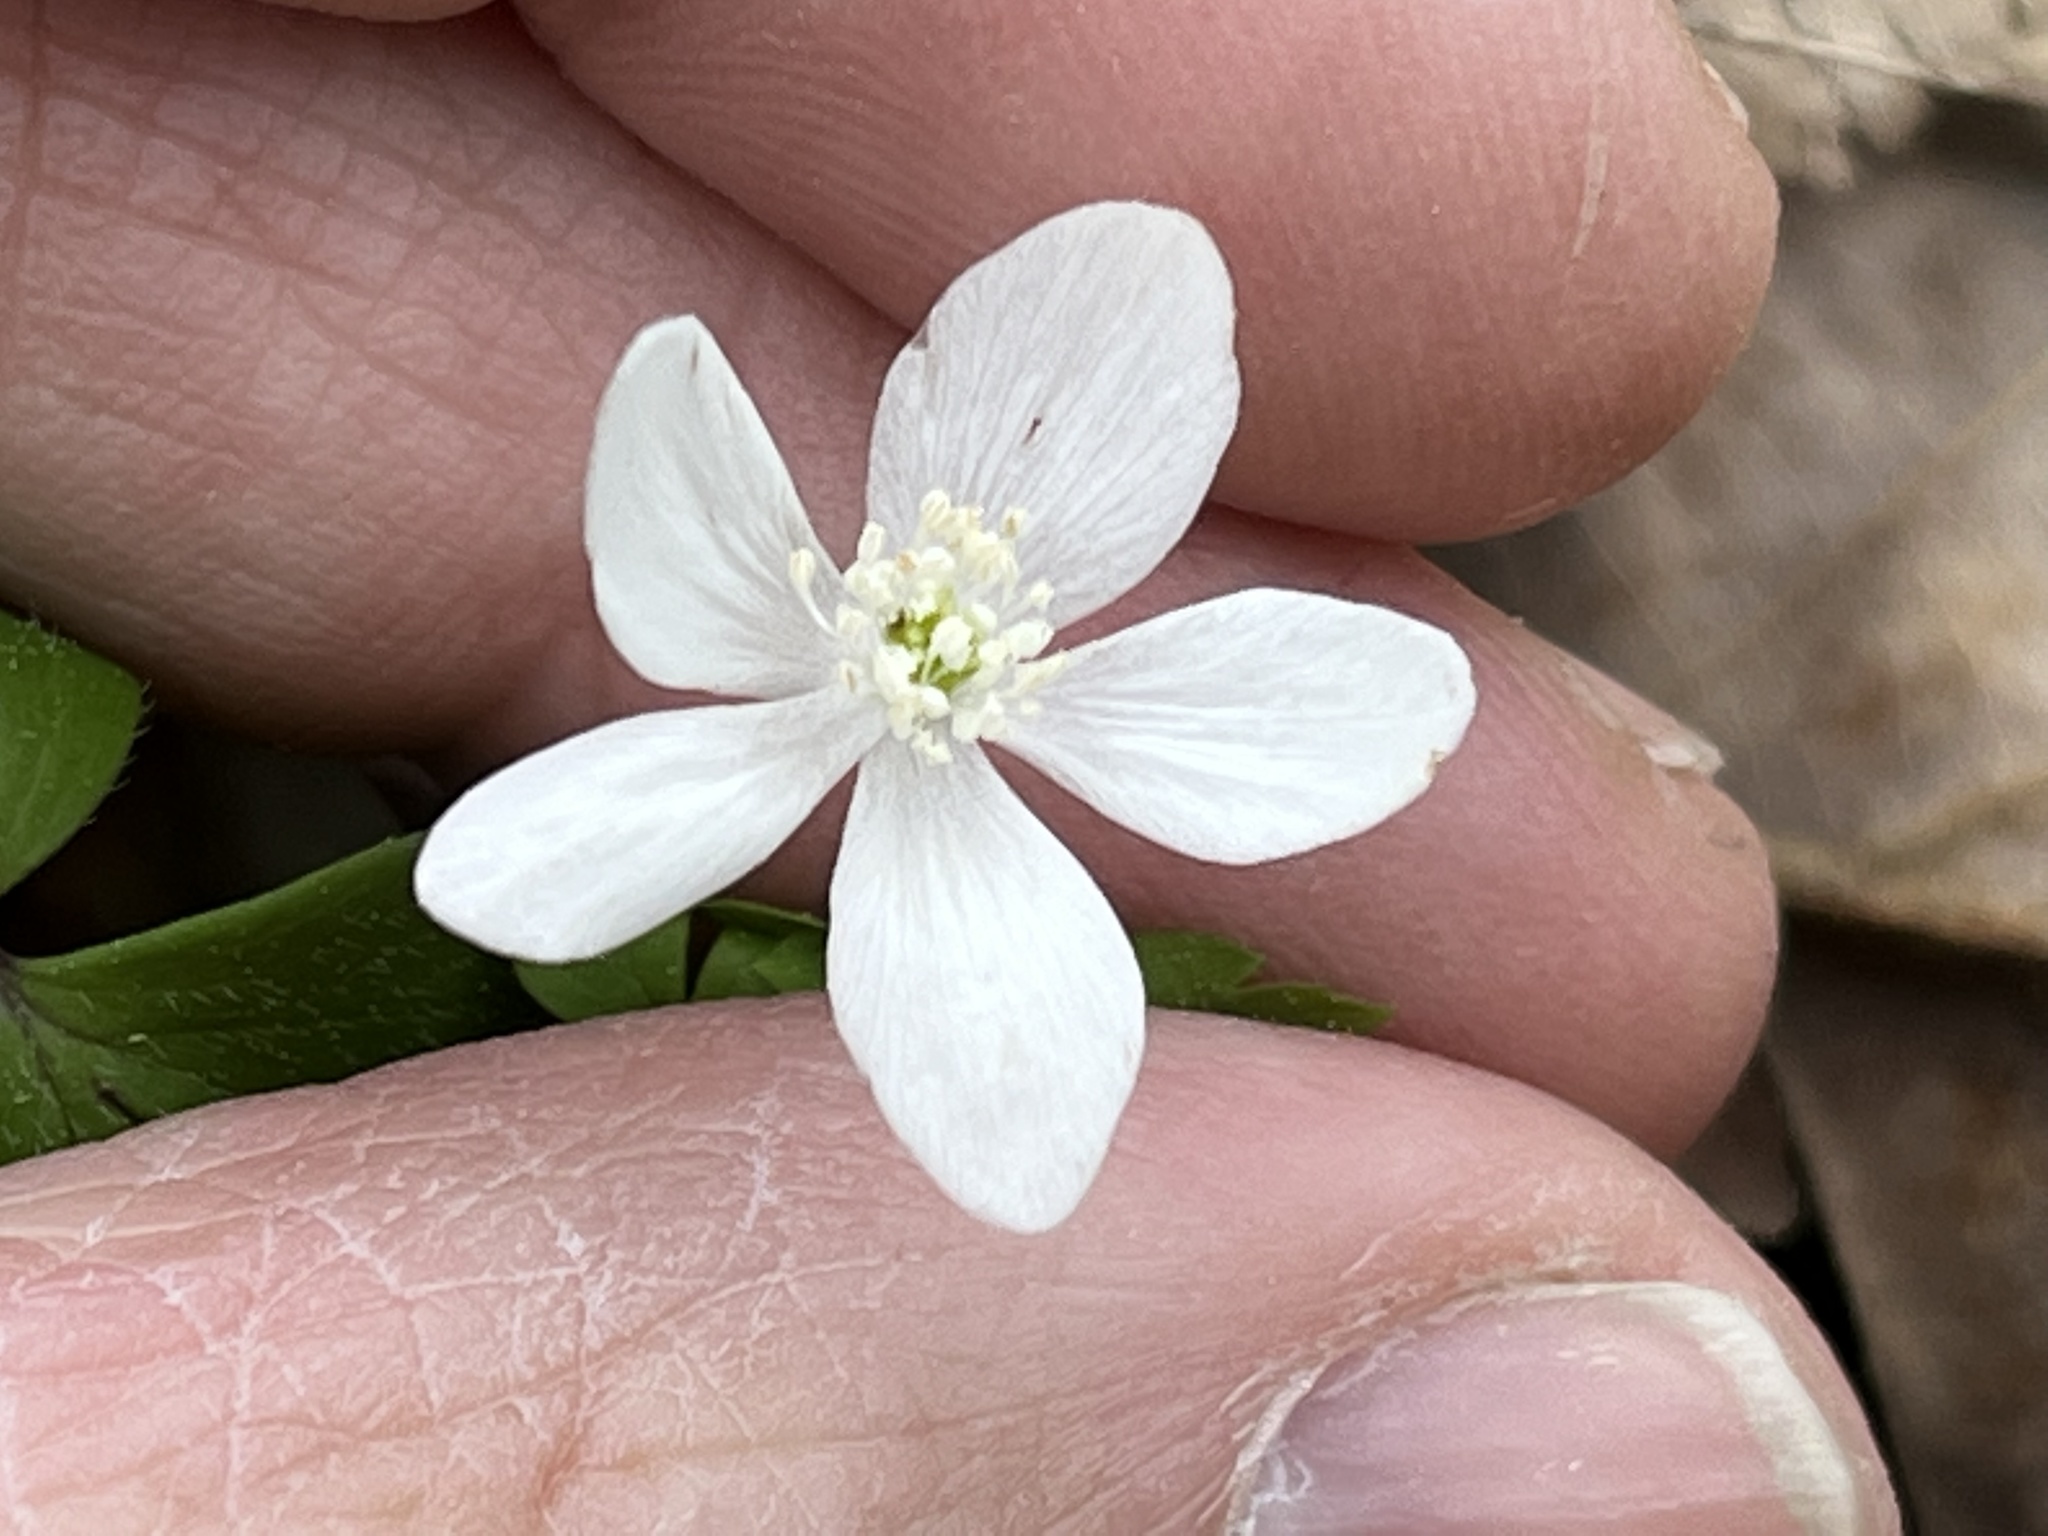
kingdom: Plantae
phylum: Tracheophyta
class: Magnoliopsida
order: Ranunculales
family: Ranunculaceae
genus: Anemone
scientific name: Anemone quinquefolia
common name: Wood anemone
